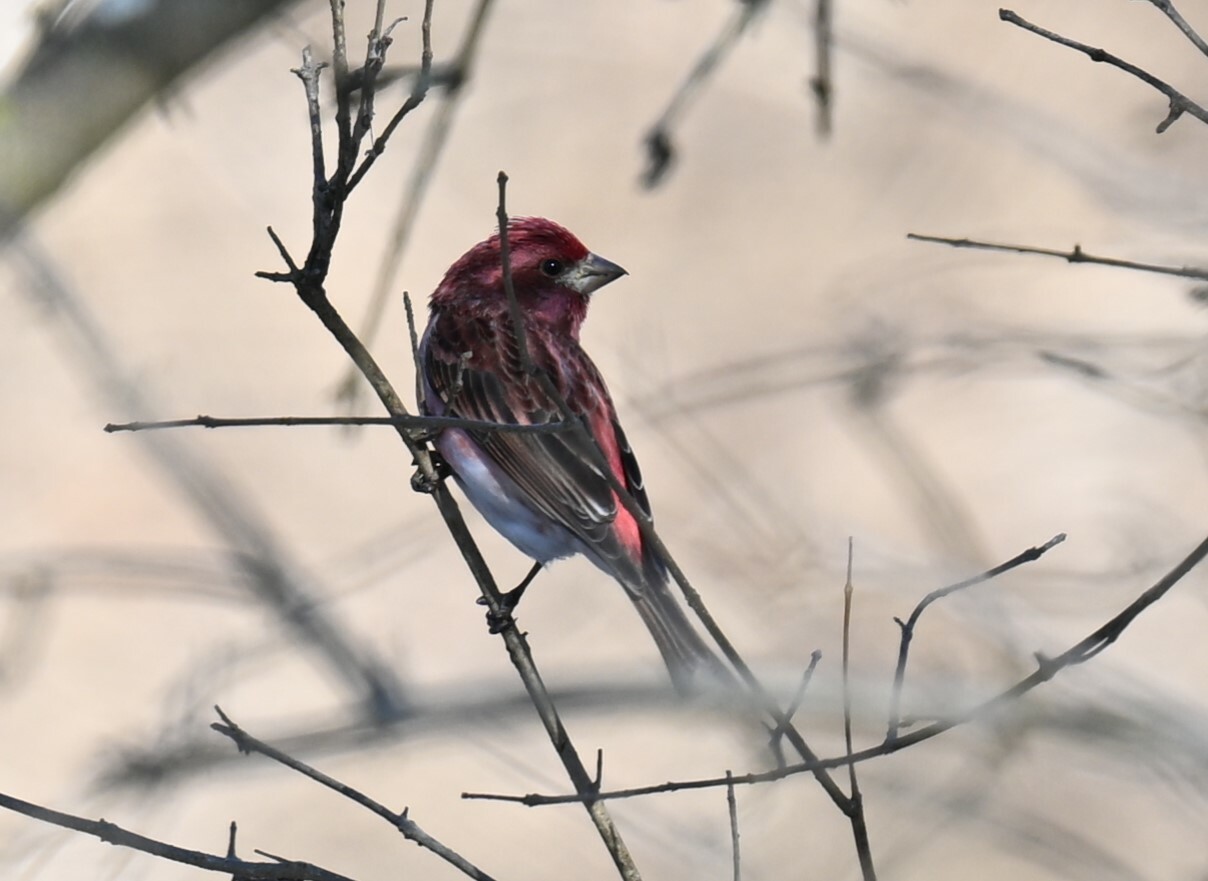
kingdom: Animalia
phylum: Chordata
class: Aves
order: Passeriformes
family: Fringillidae
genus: Haemorhous
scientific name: Haemorhous purpureus
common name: Purple finch
